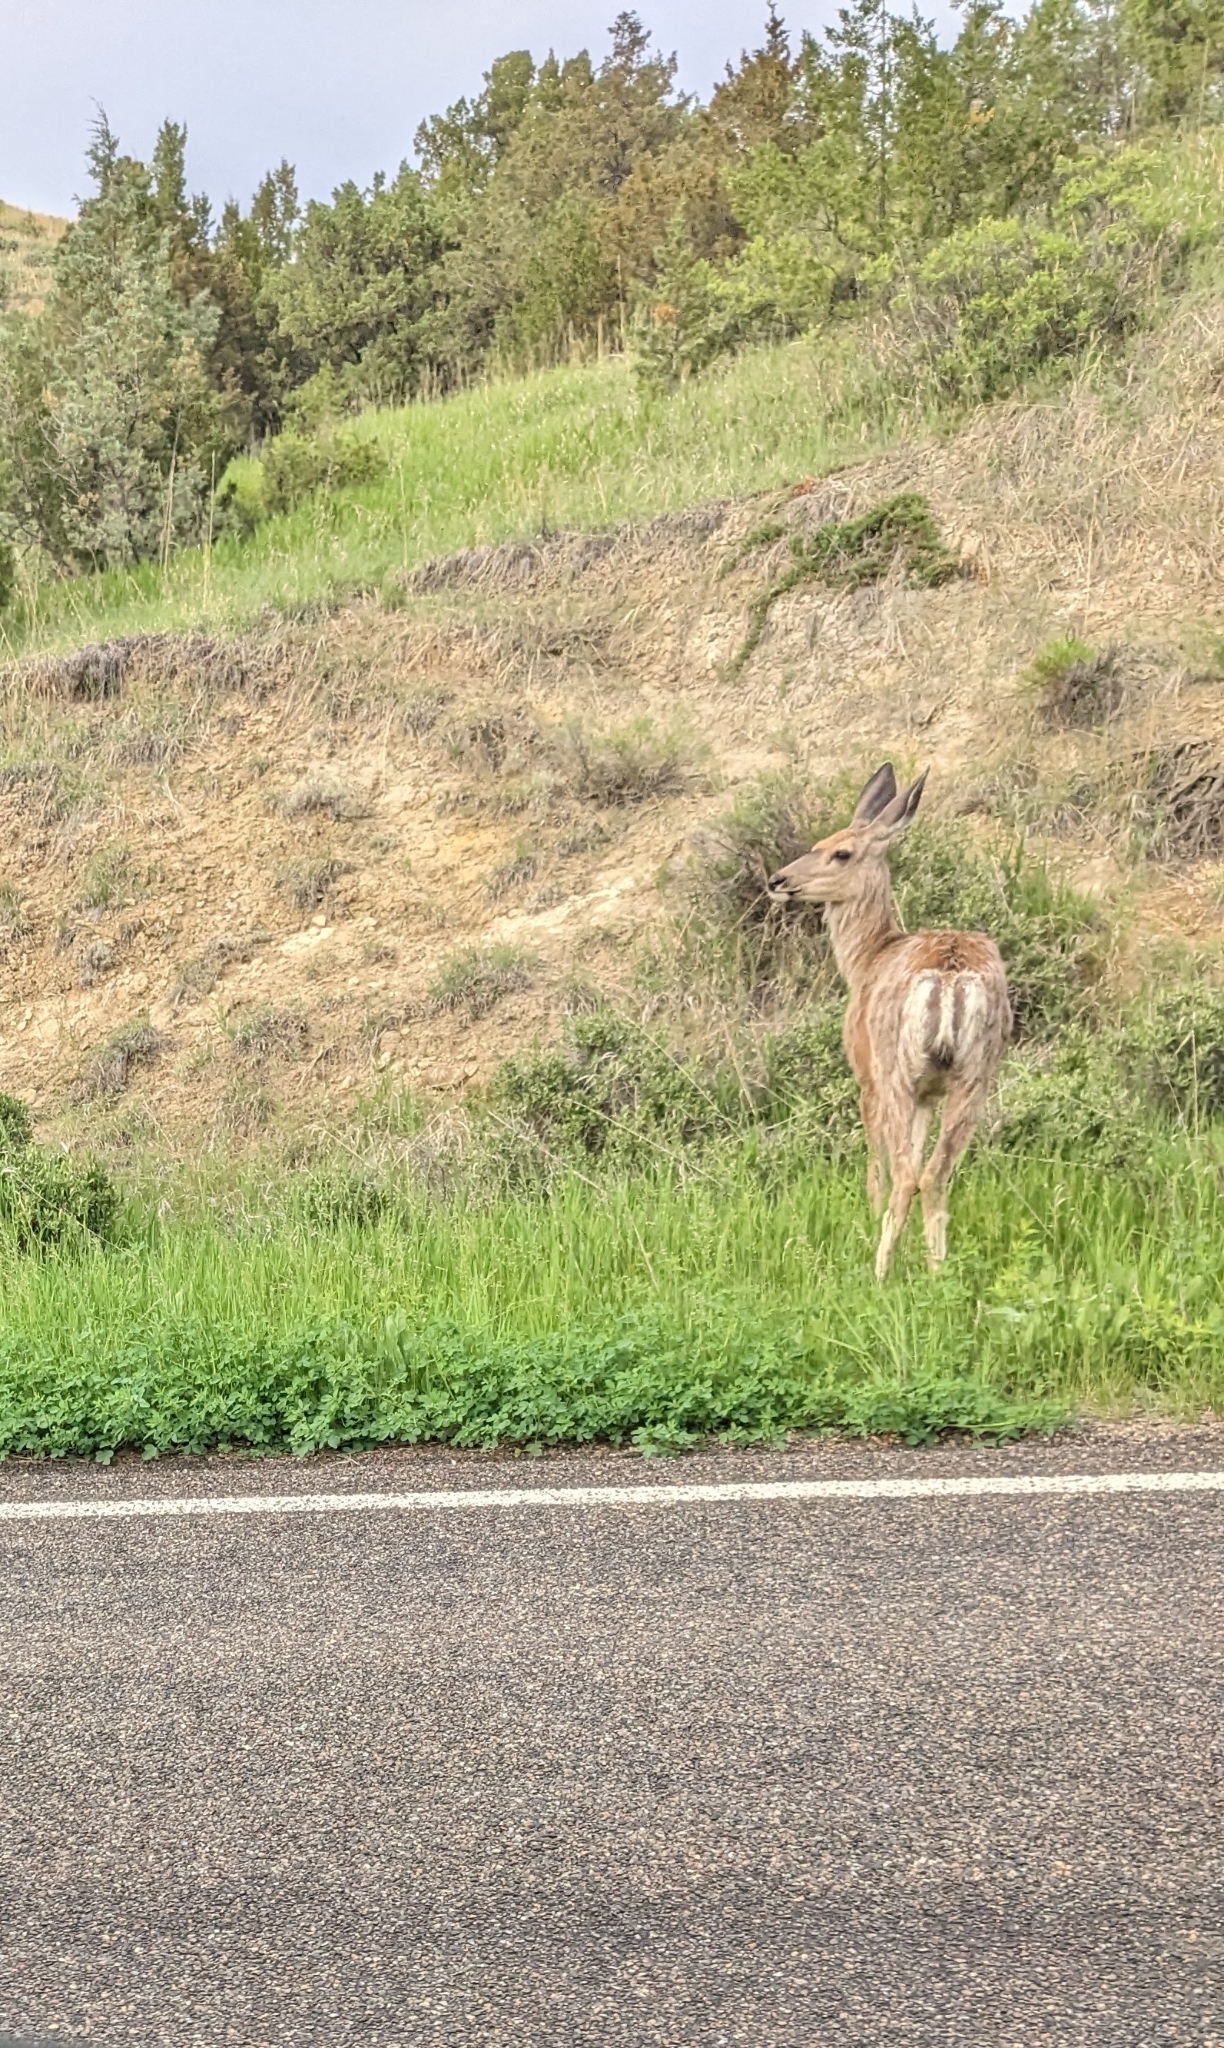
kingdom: Animalia
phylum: Chordata
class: Mammalia
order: Artiodactyla
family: Cervidae
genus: Odocoileus
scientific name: Odocoileus hemionus
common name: Mule deer
